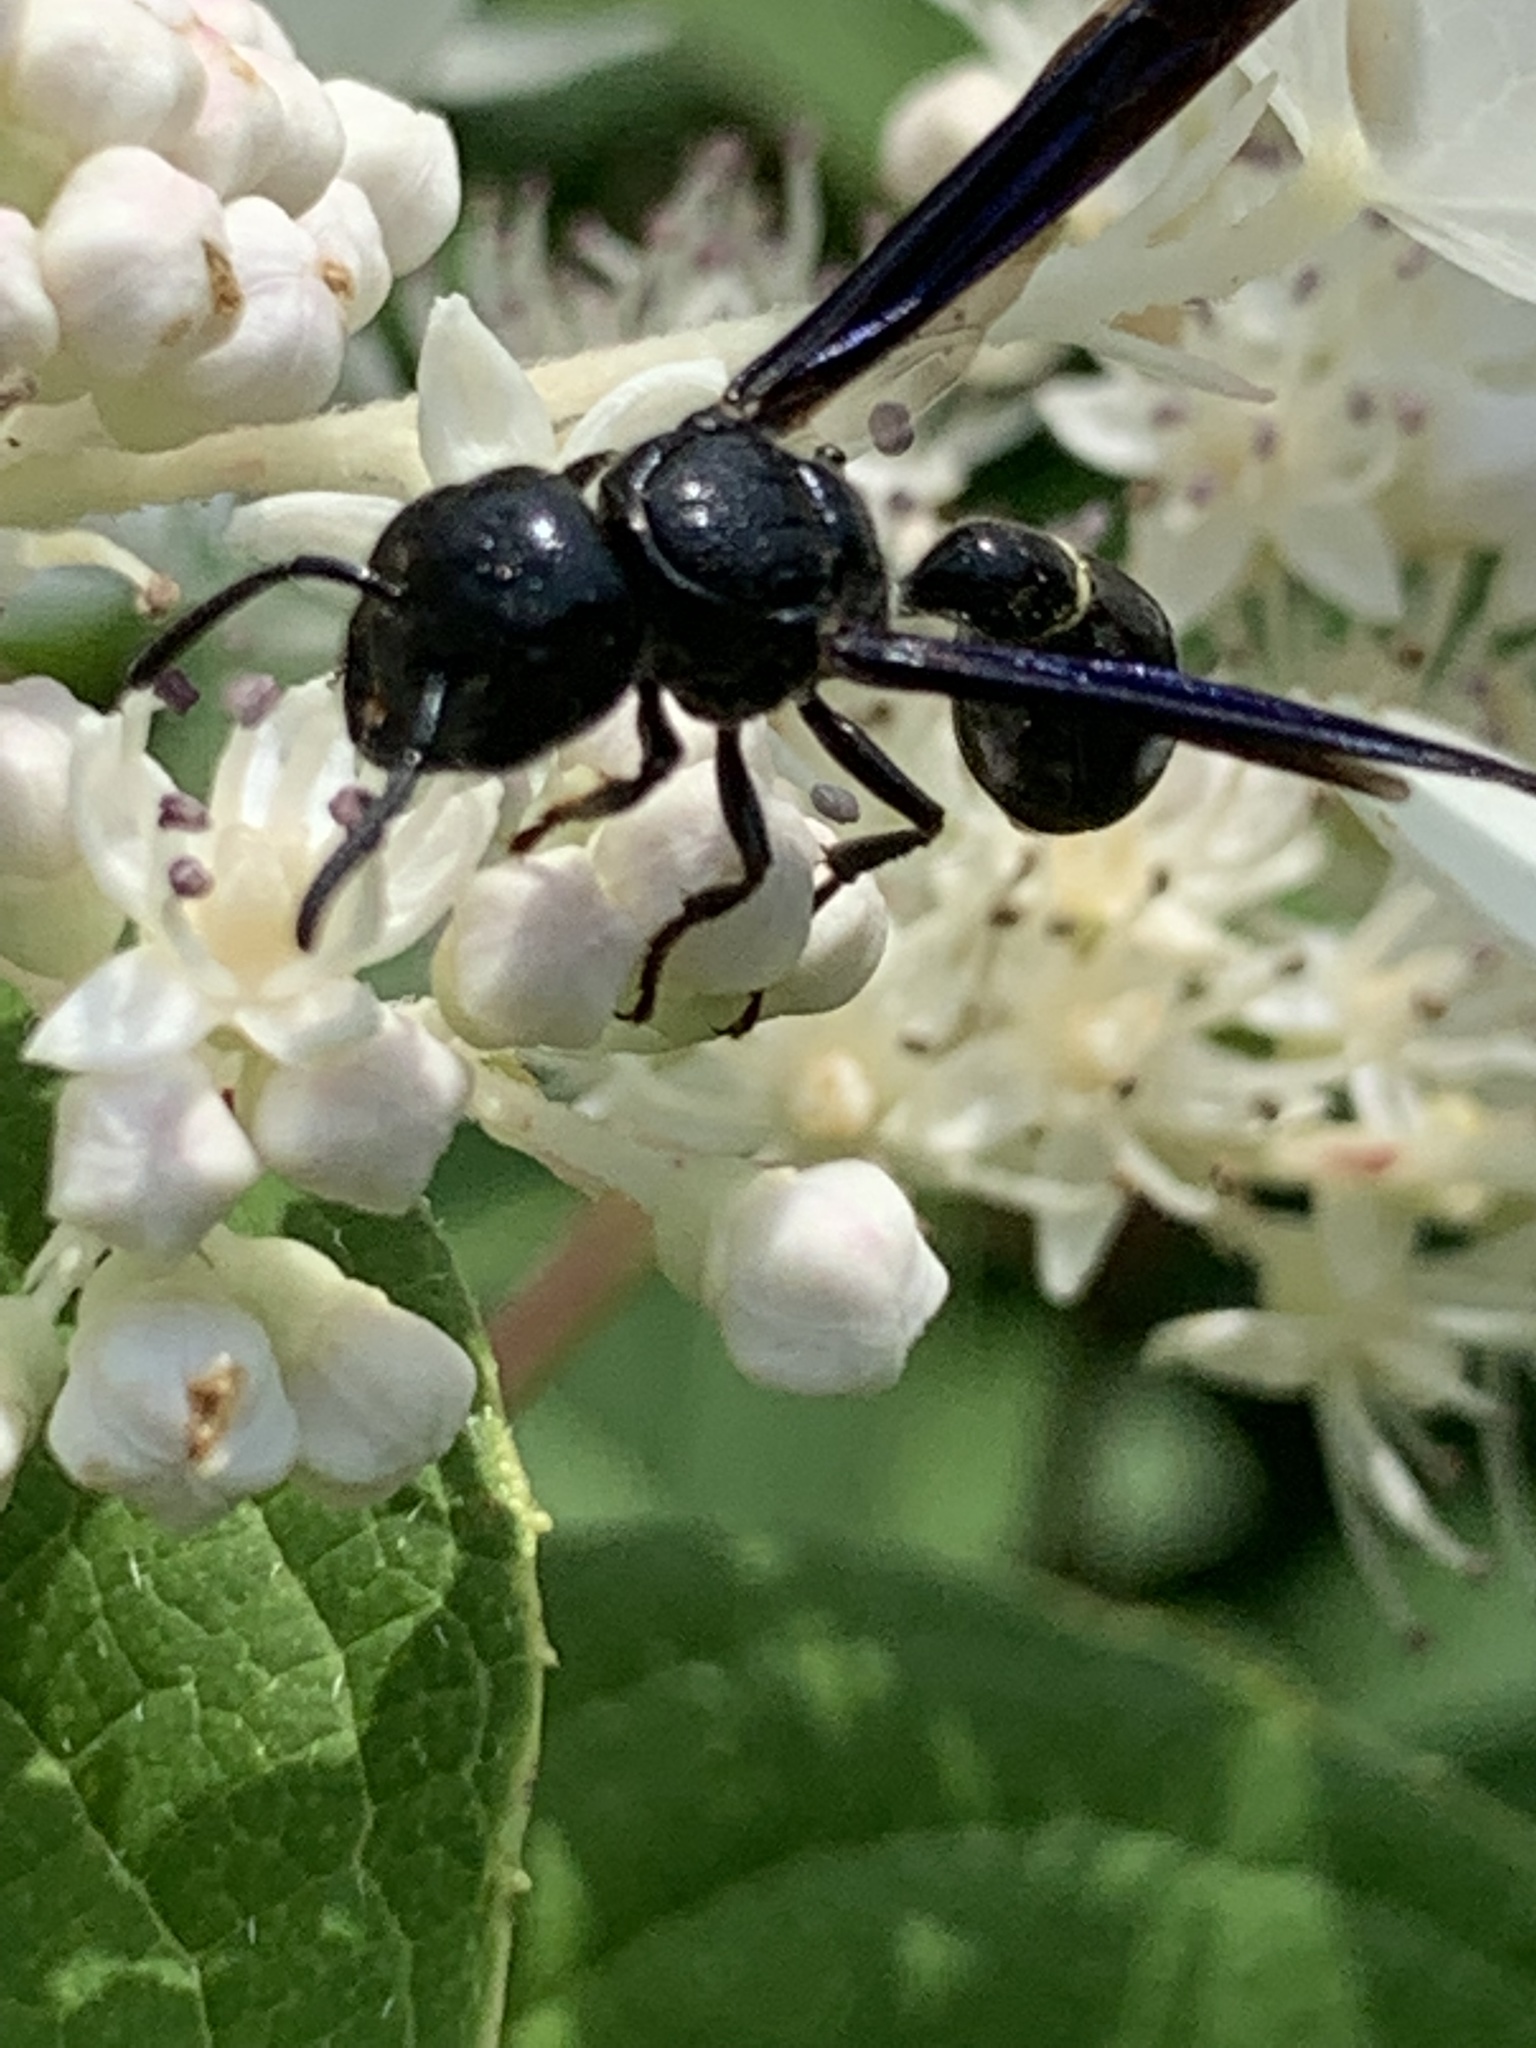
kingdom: Animalia
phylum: Arthropoda
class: Insecta
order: Hymenoptera
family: Eumenidae
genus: Zethus
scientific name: Zethus spinipes
